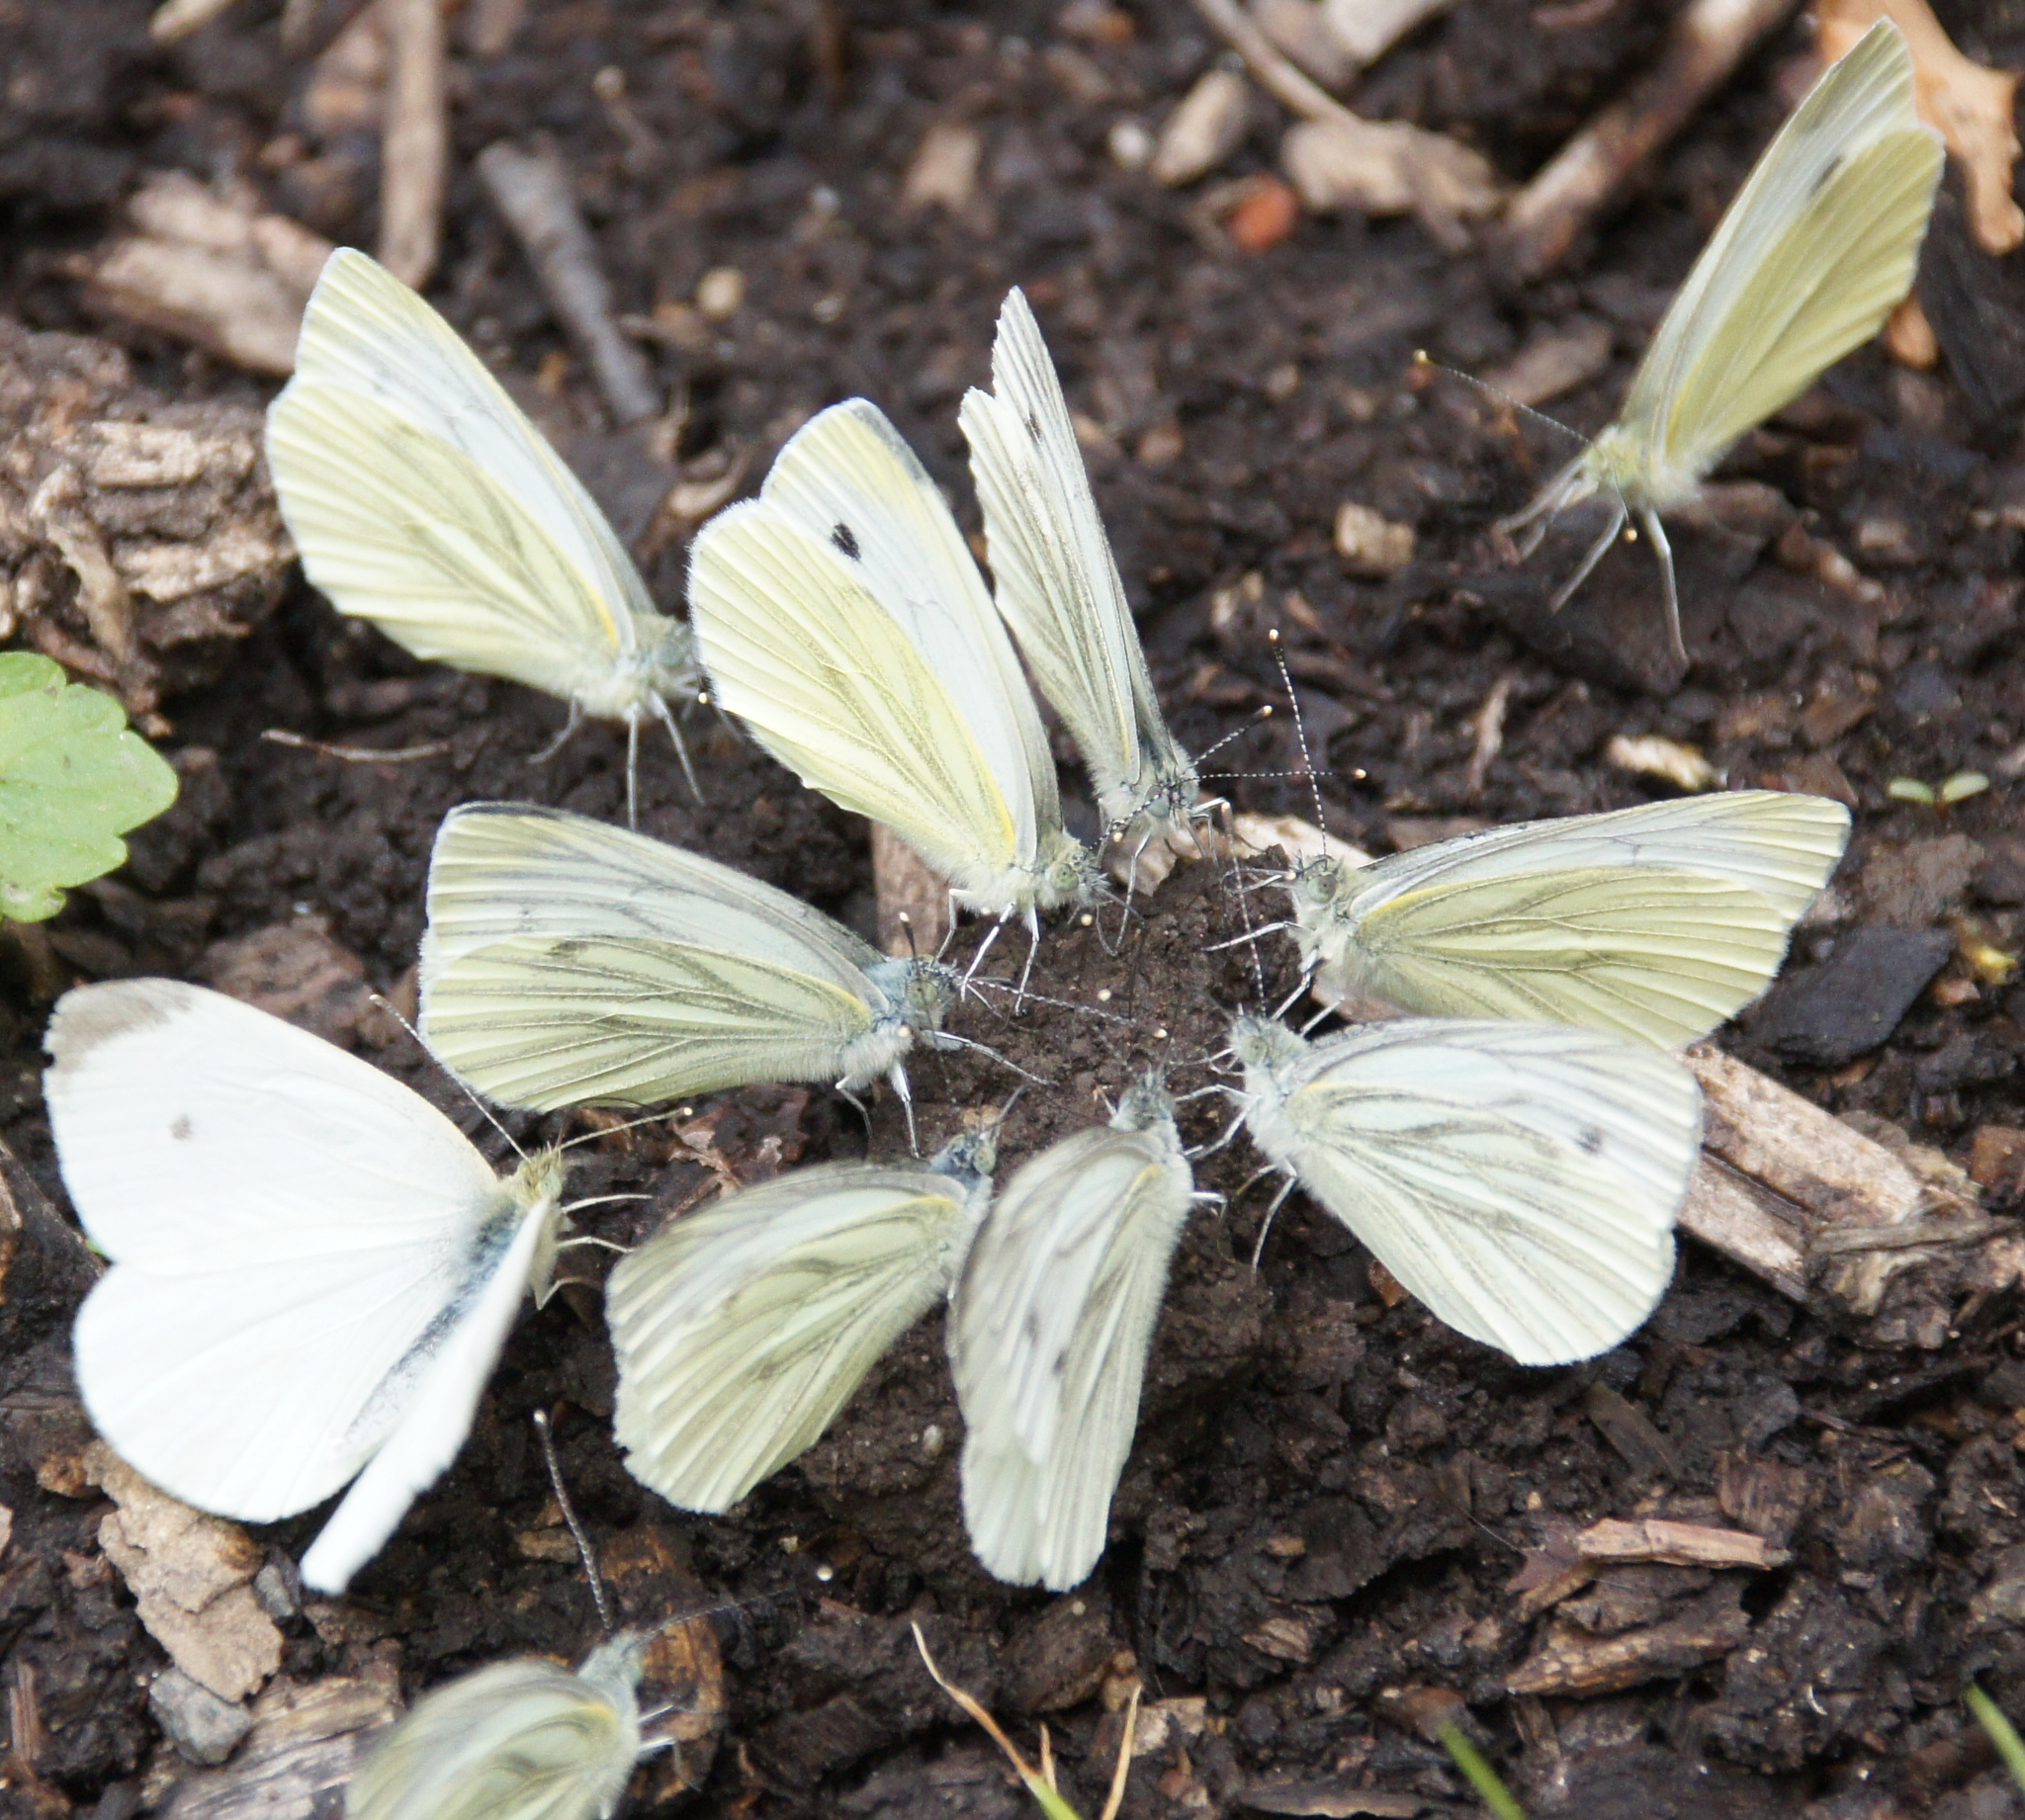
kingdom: Animalia
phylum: Arthropoda
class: Insecta
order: Lepidoptera
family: Pieridae
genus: Pieris
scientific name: Pieris napi
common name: Green-veined white
